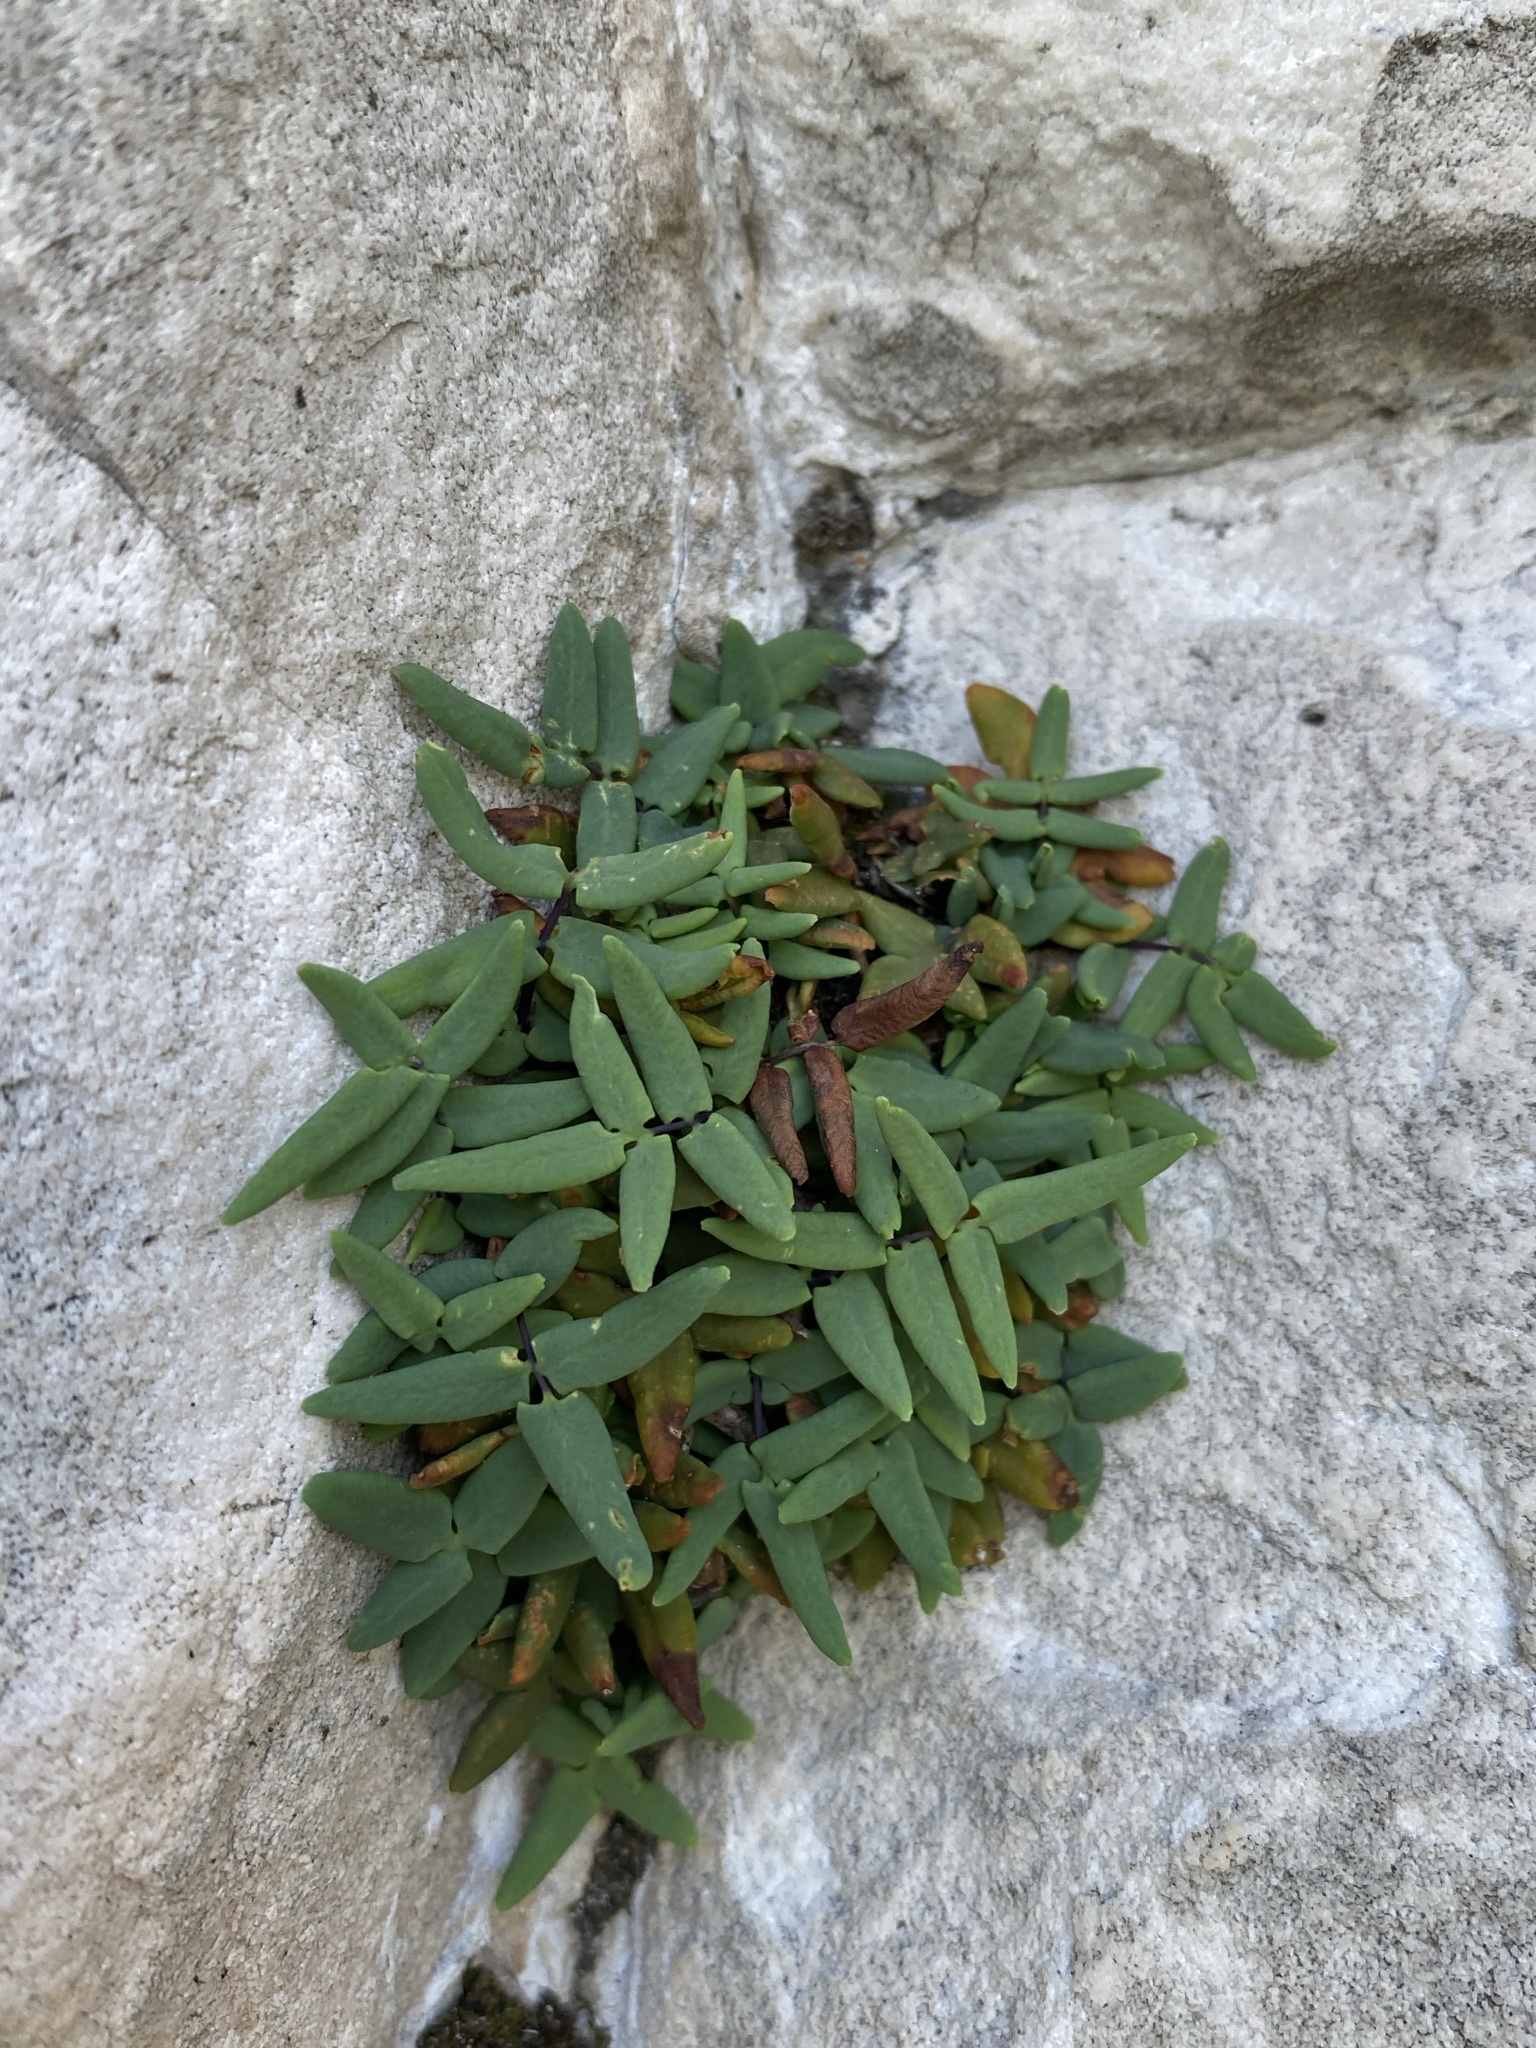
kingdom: Plantae
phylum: Tracheophyta
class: Polypodiopsida
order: Polypodiales
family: Pteridaceae
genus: Pellaea
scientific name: Pellaea glabella
